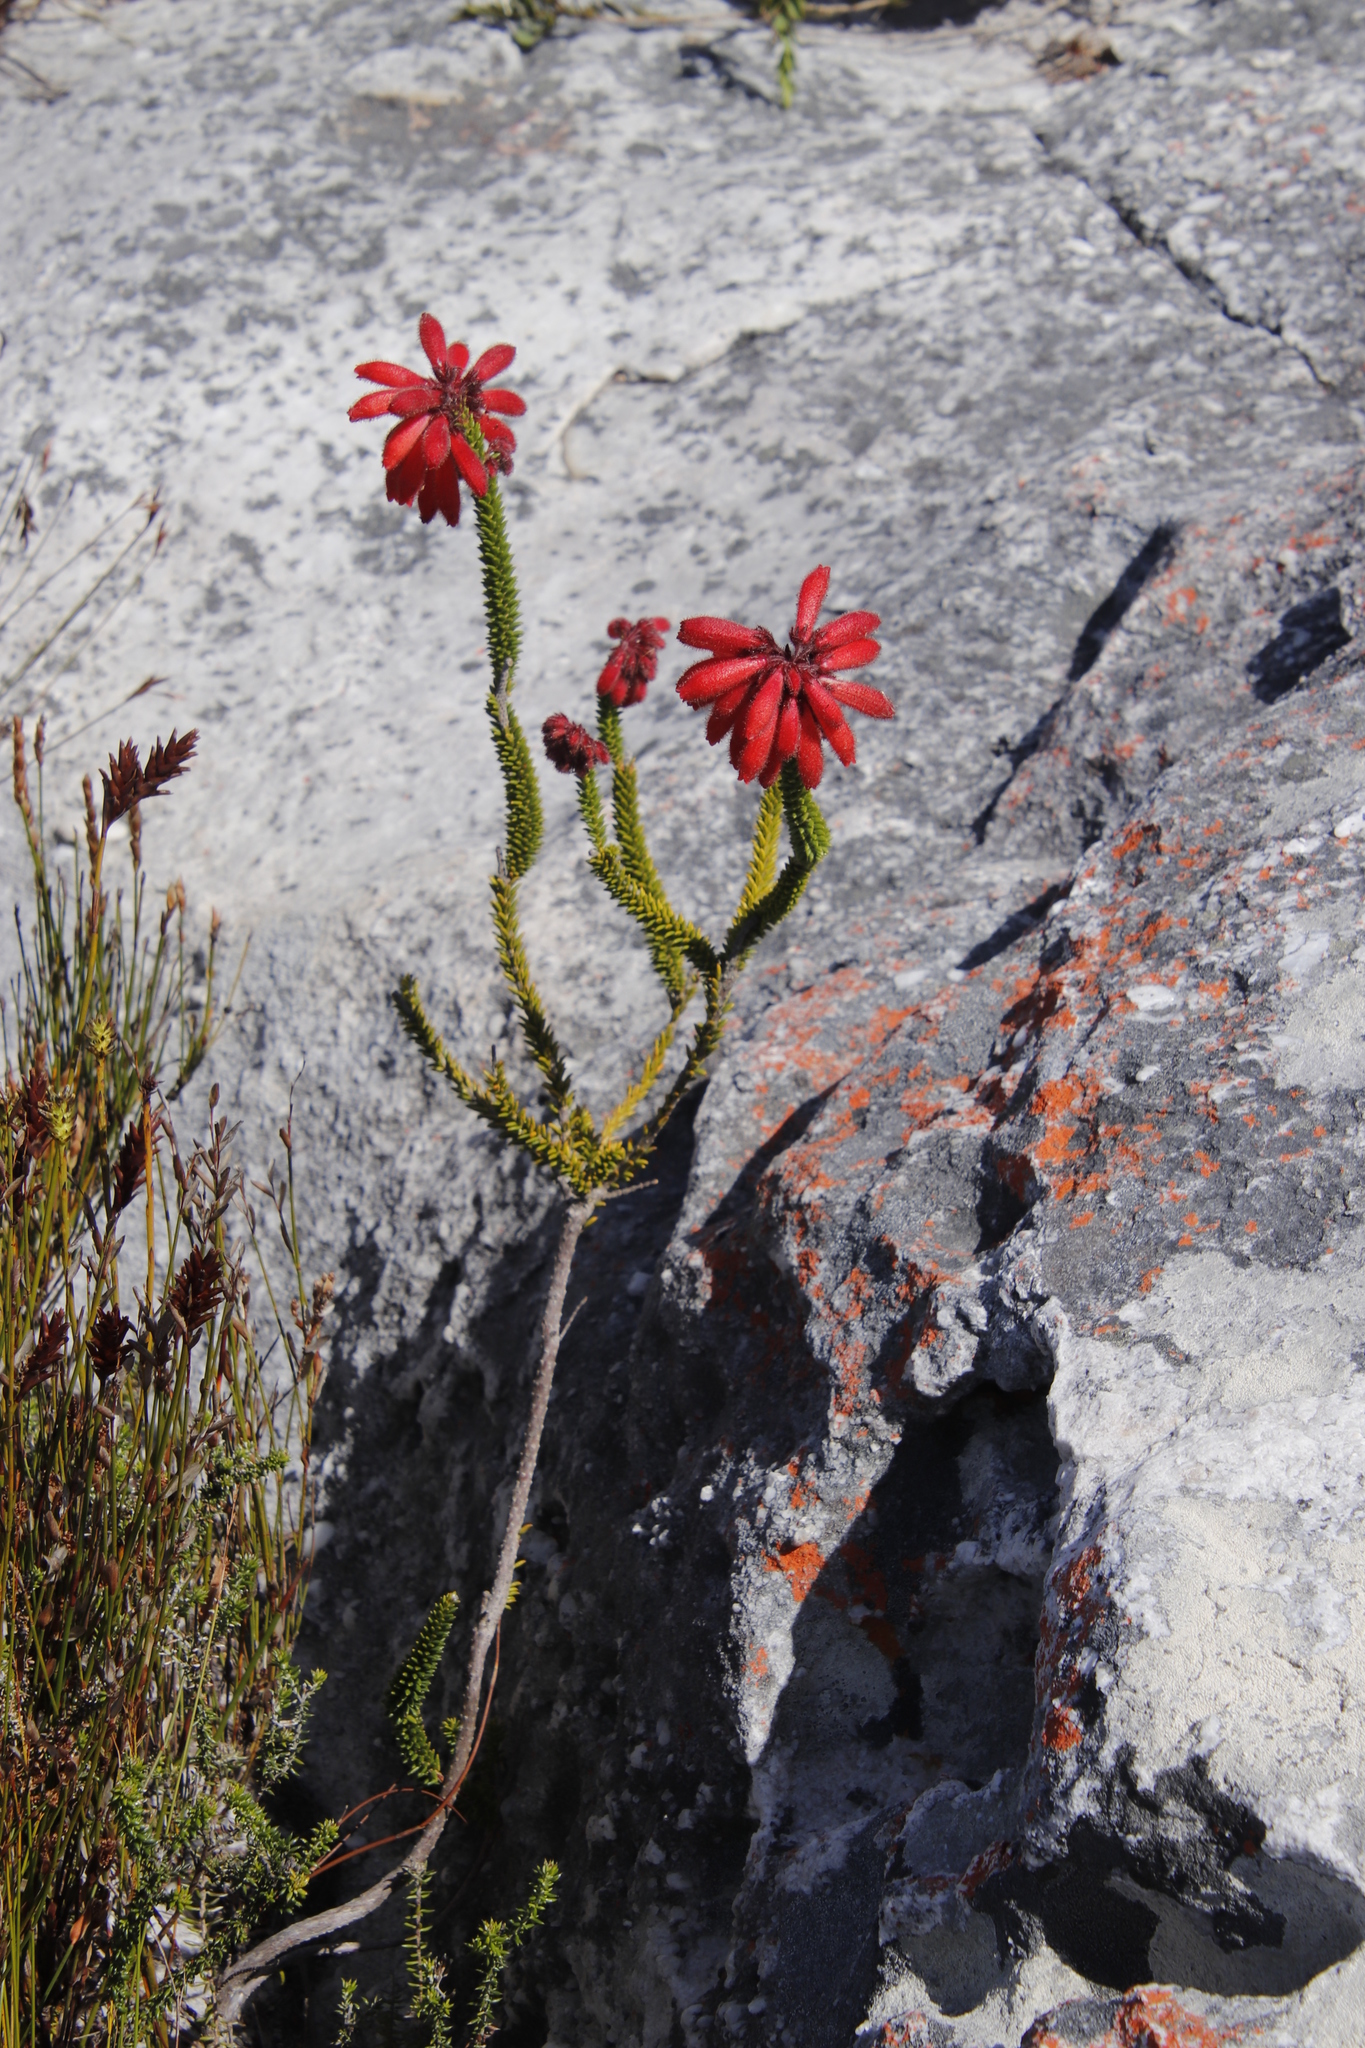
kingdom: Plantae
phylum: Tracheophyta
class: Magnoliopsida
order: Ericales
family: Ericaceae
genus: Erica
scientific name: Erica cerinthoides
